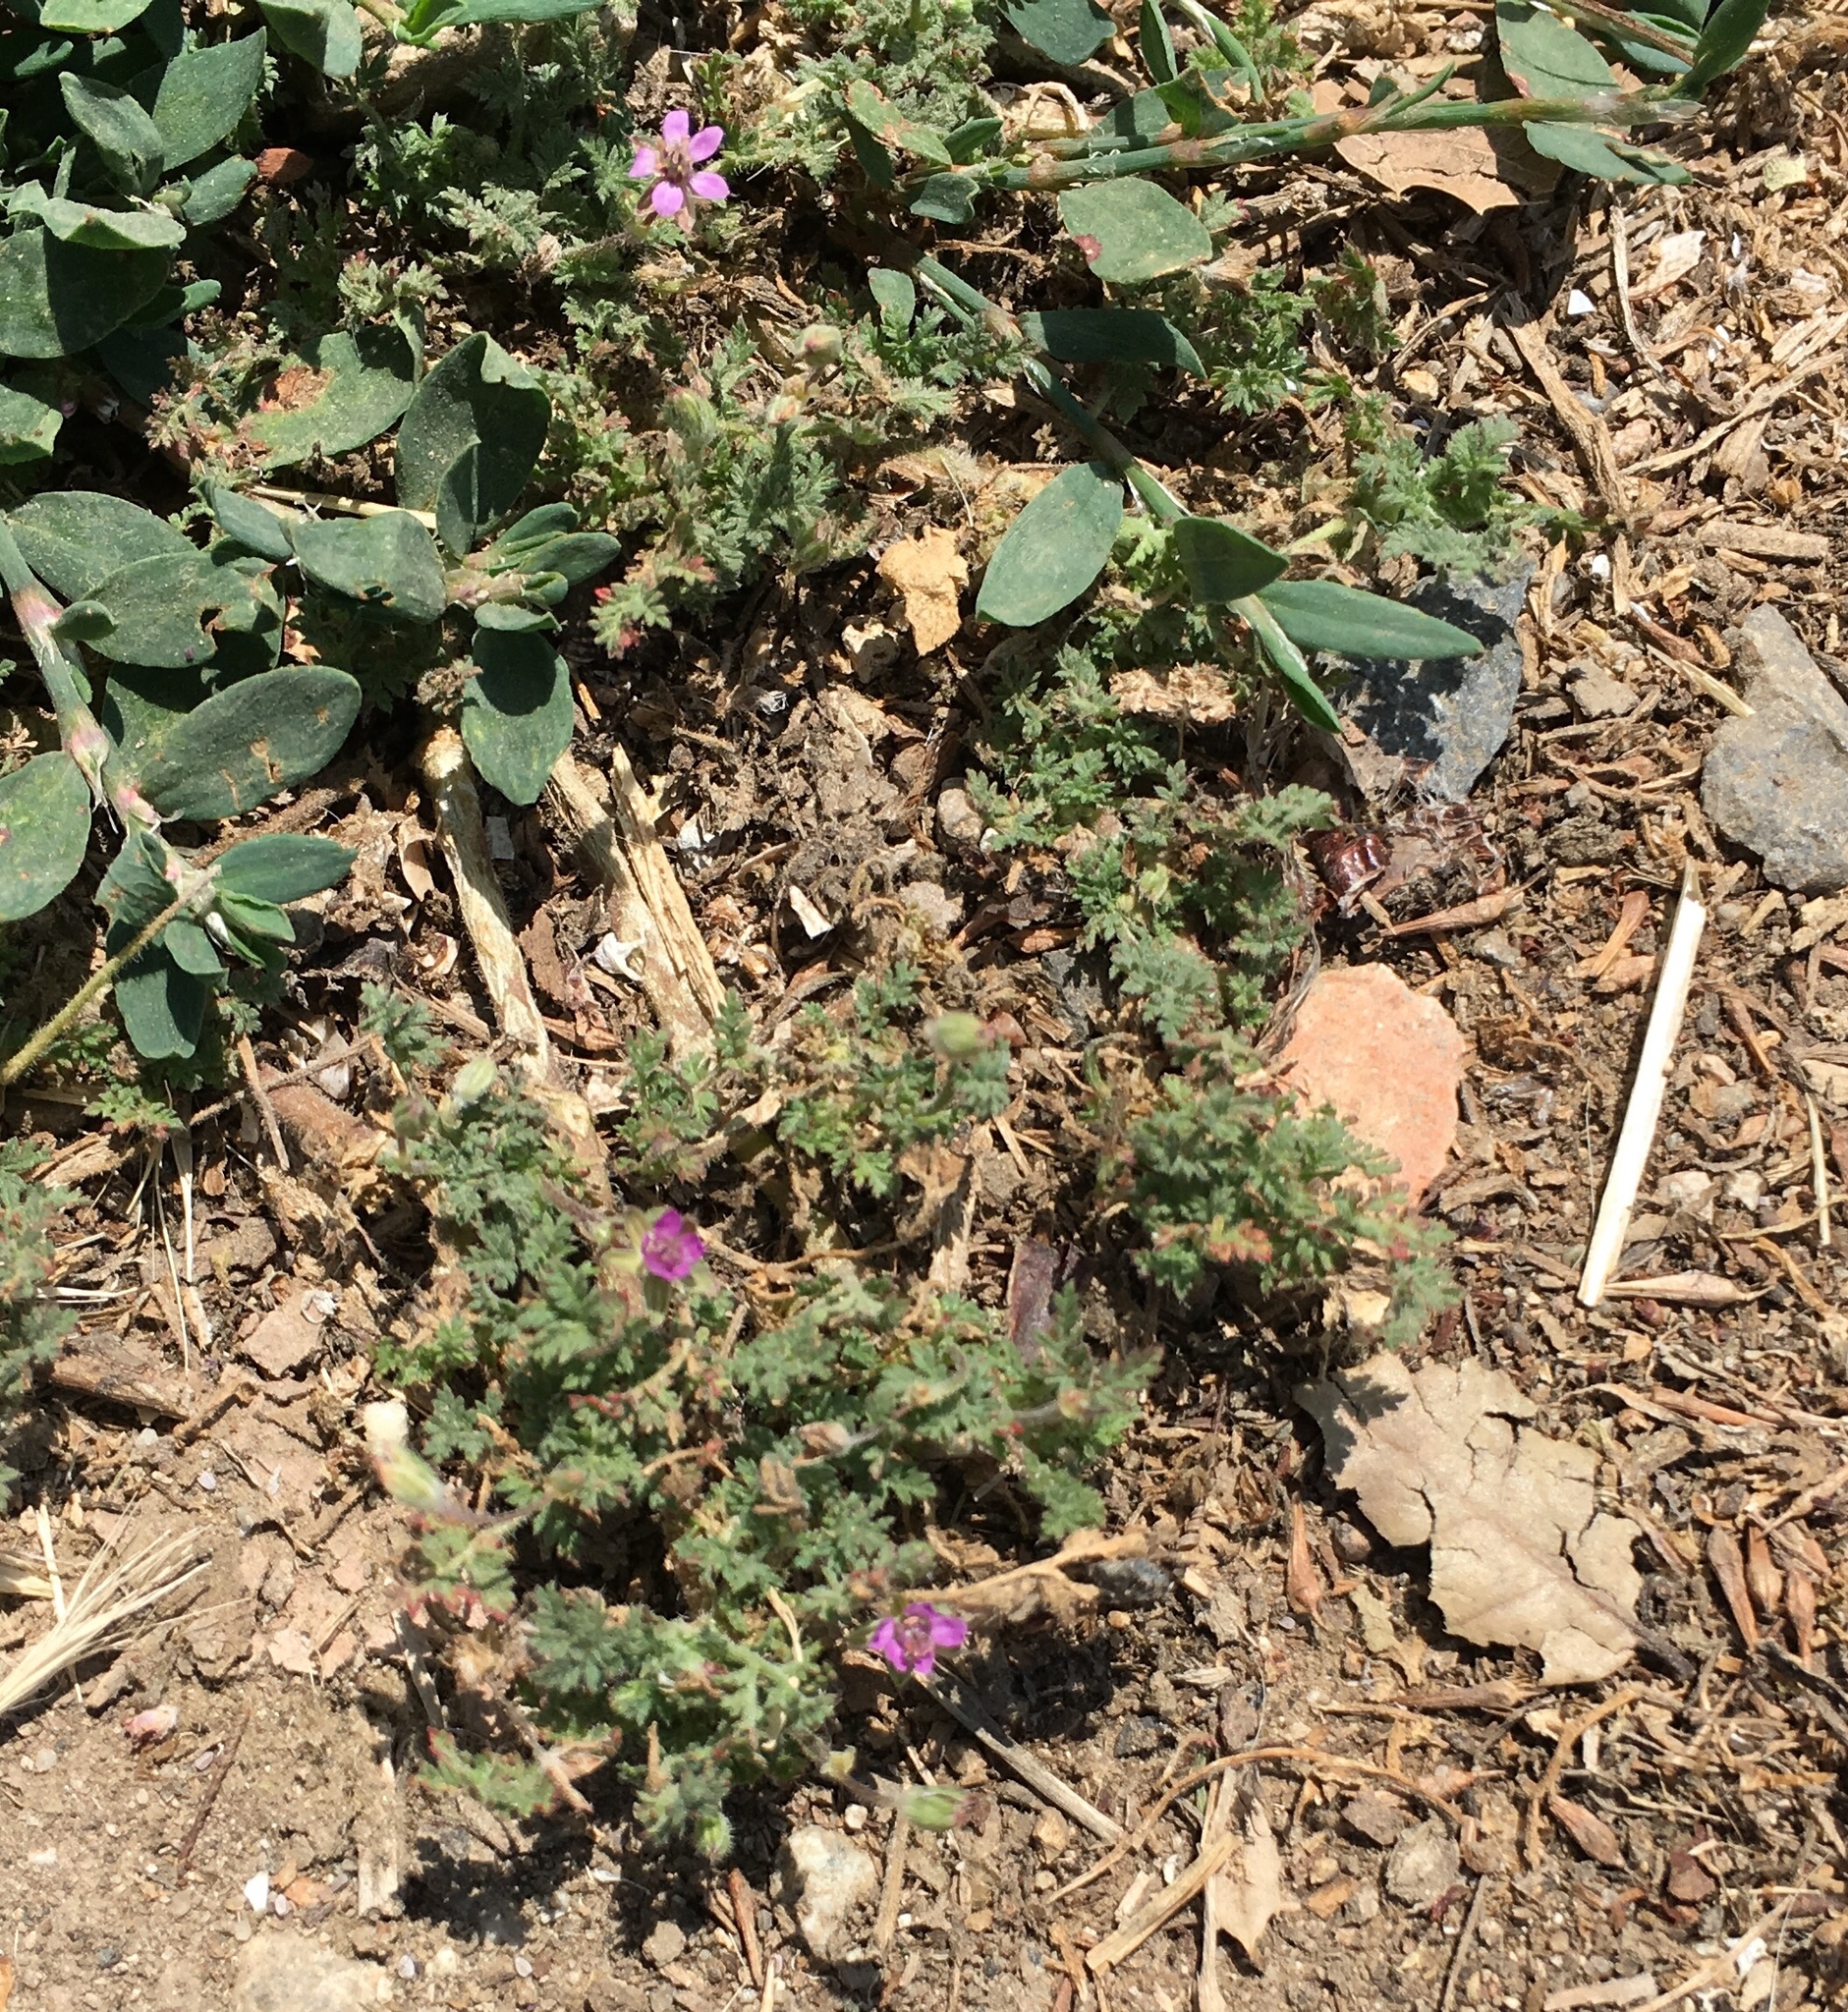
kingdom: Plantae
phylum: Tracheophyta
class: Magnoliopsida
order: Geraniales
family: Geraniaceae
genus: Erodium
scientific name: Erodium cicutarium
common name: Common stork's-bill
